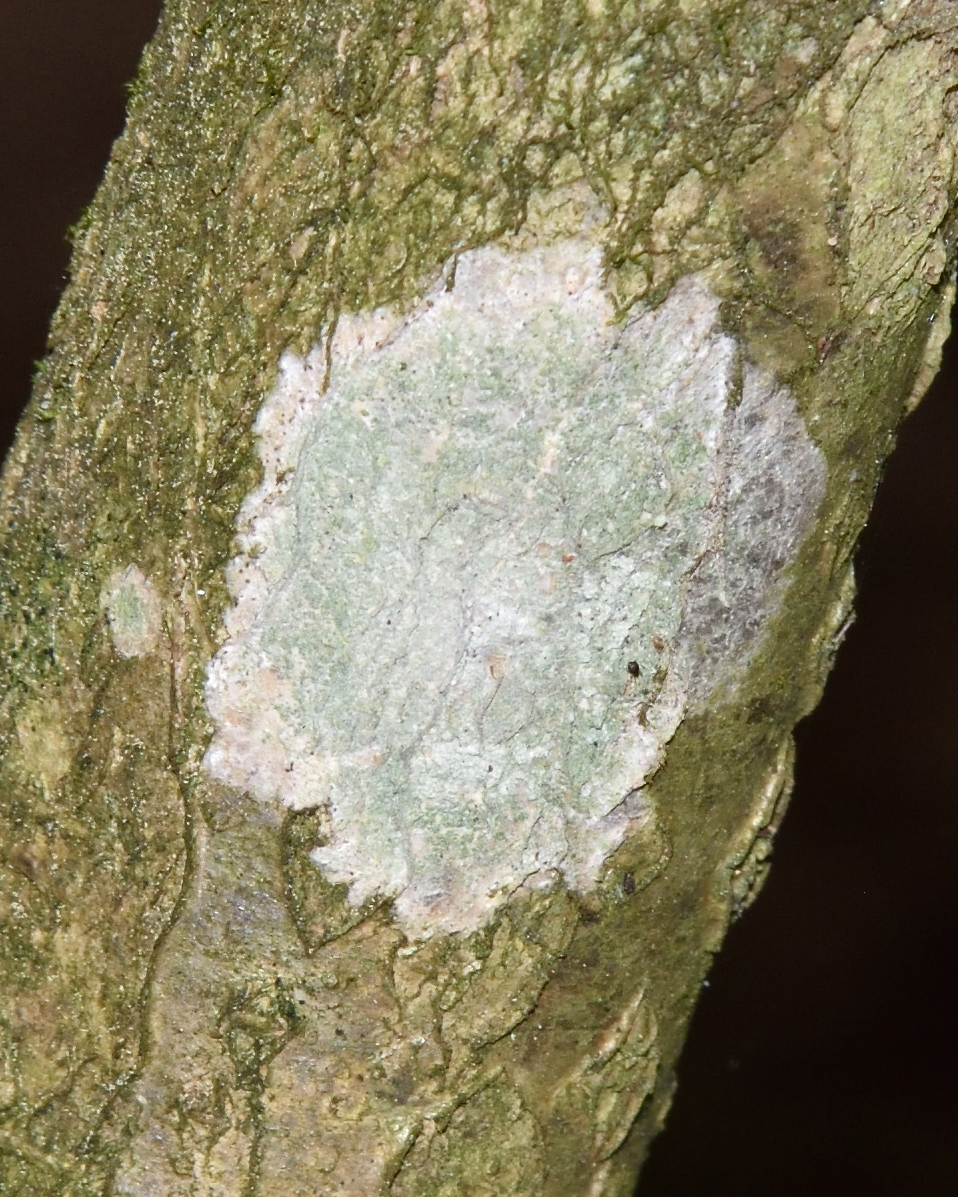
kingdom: Fungi
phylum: Ascomycota
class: Lecanoromycetes
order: Ostropales
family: Phlyctidaceae
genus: Phlyctis
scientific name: Phlyctis argena
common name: Whitewash lichen
